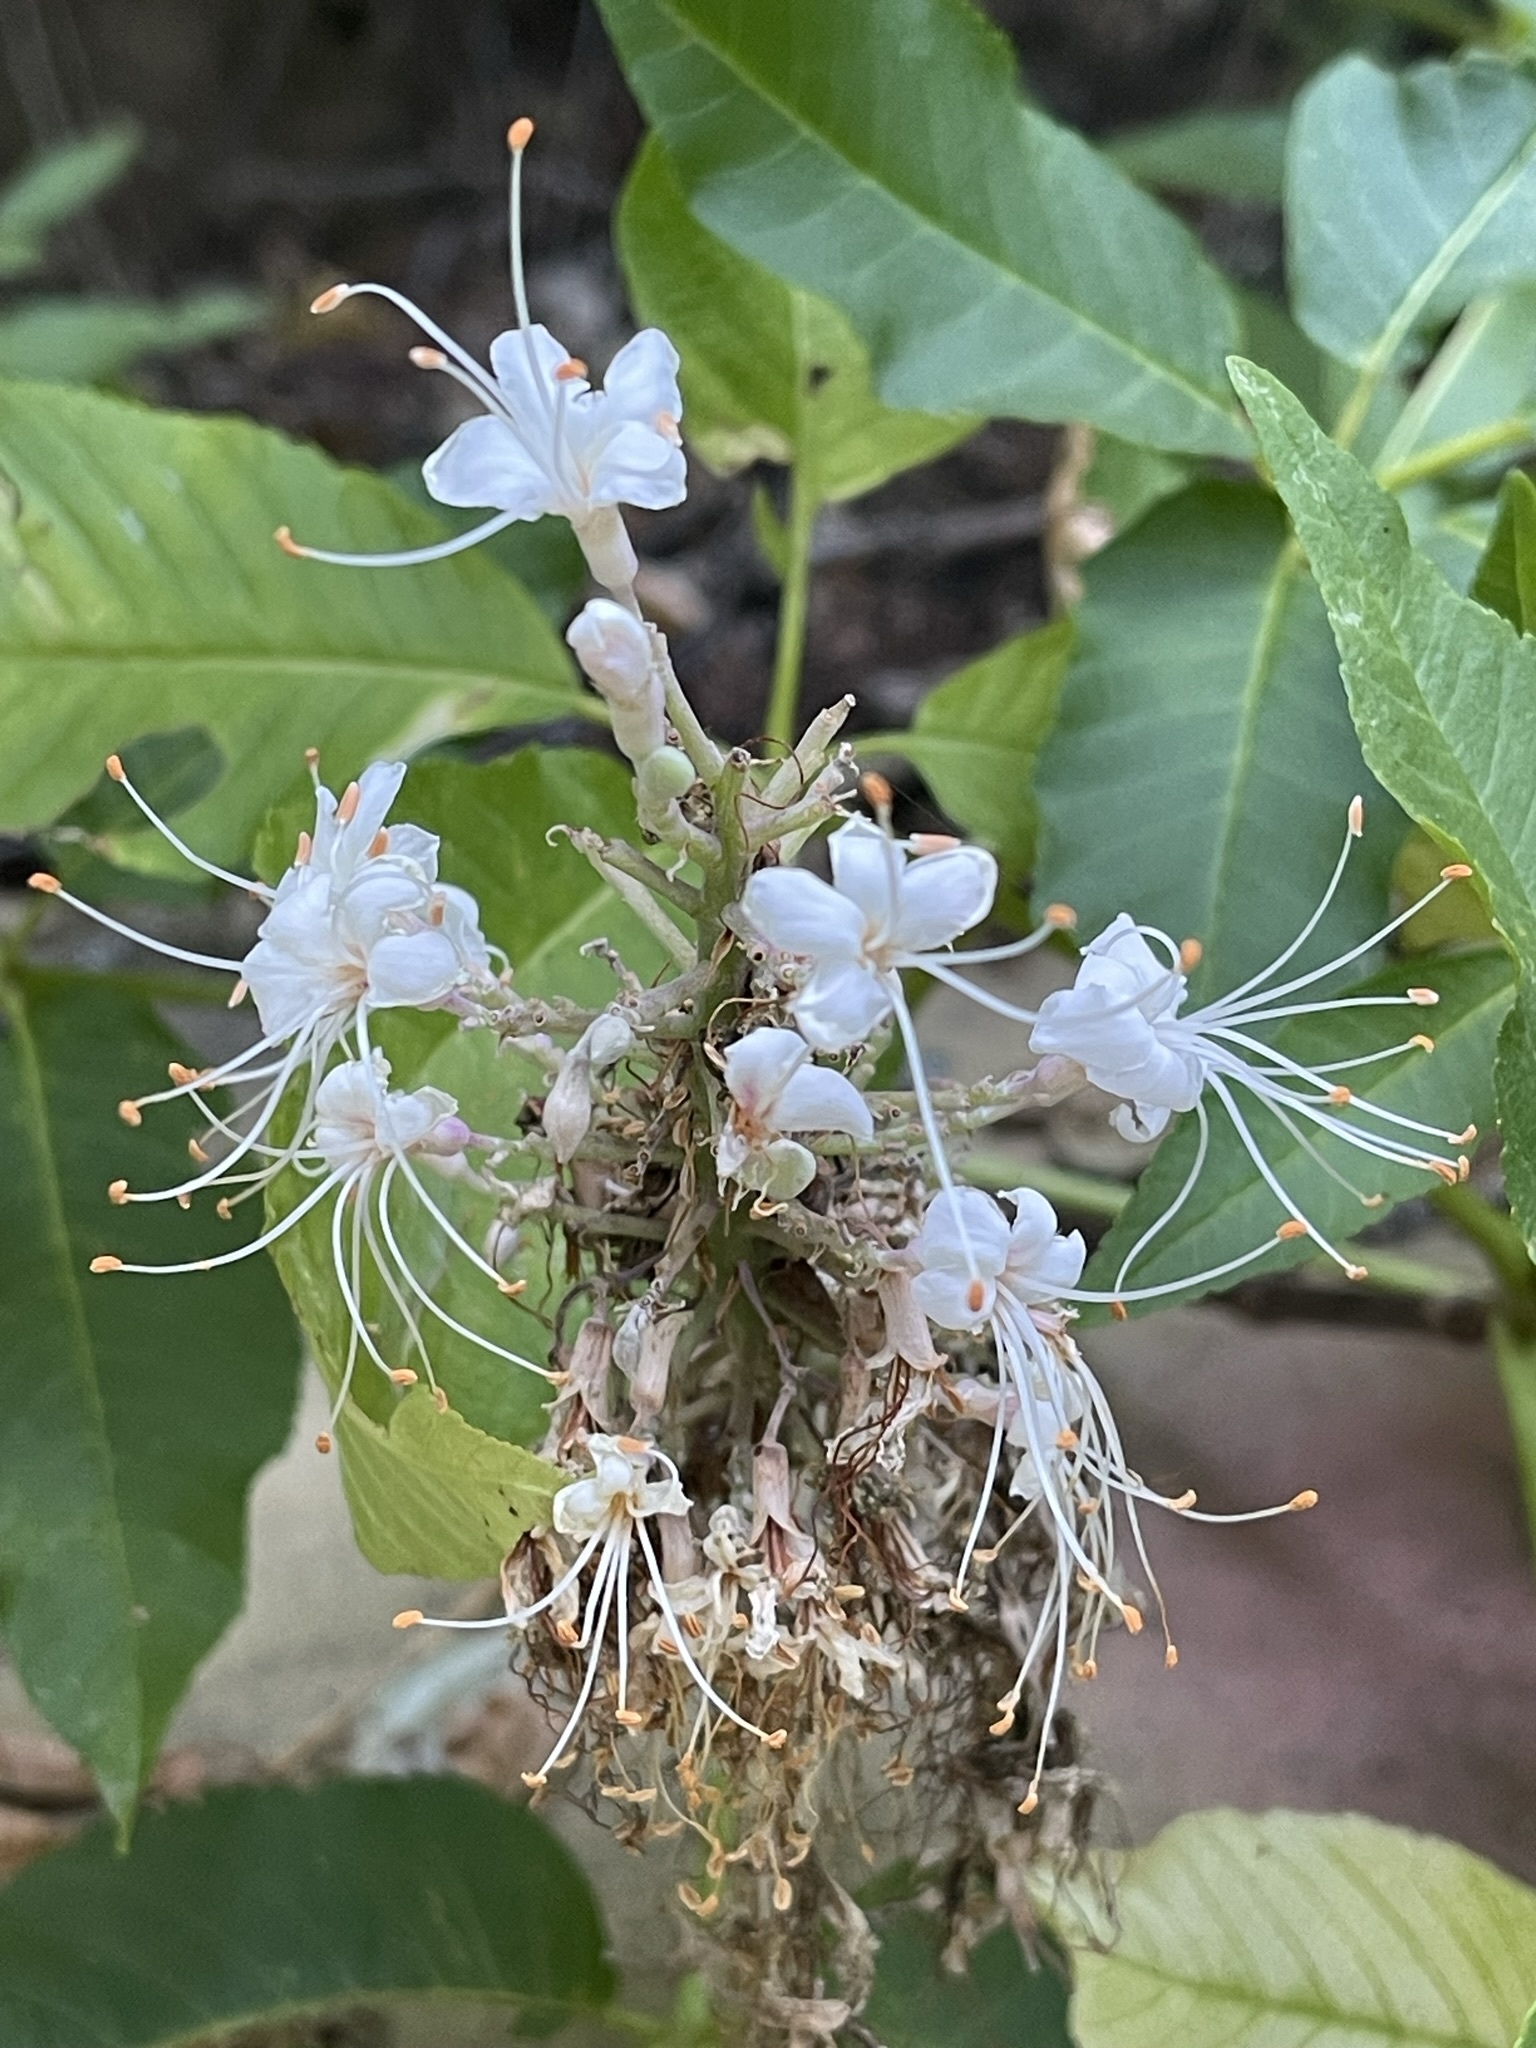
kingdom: Plantae
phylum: Tracheophyta
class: Magnoliopsida
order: Sapindales
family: Sapindaceae
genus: Aesculus
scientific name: Aesculus californica
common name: California buckeye
